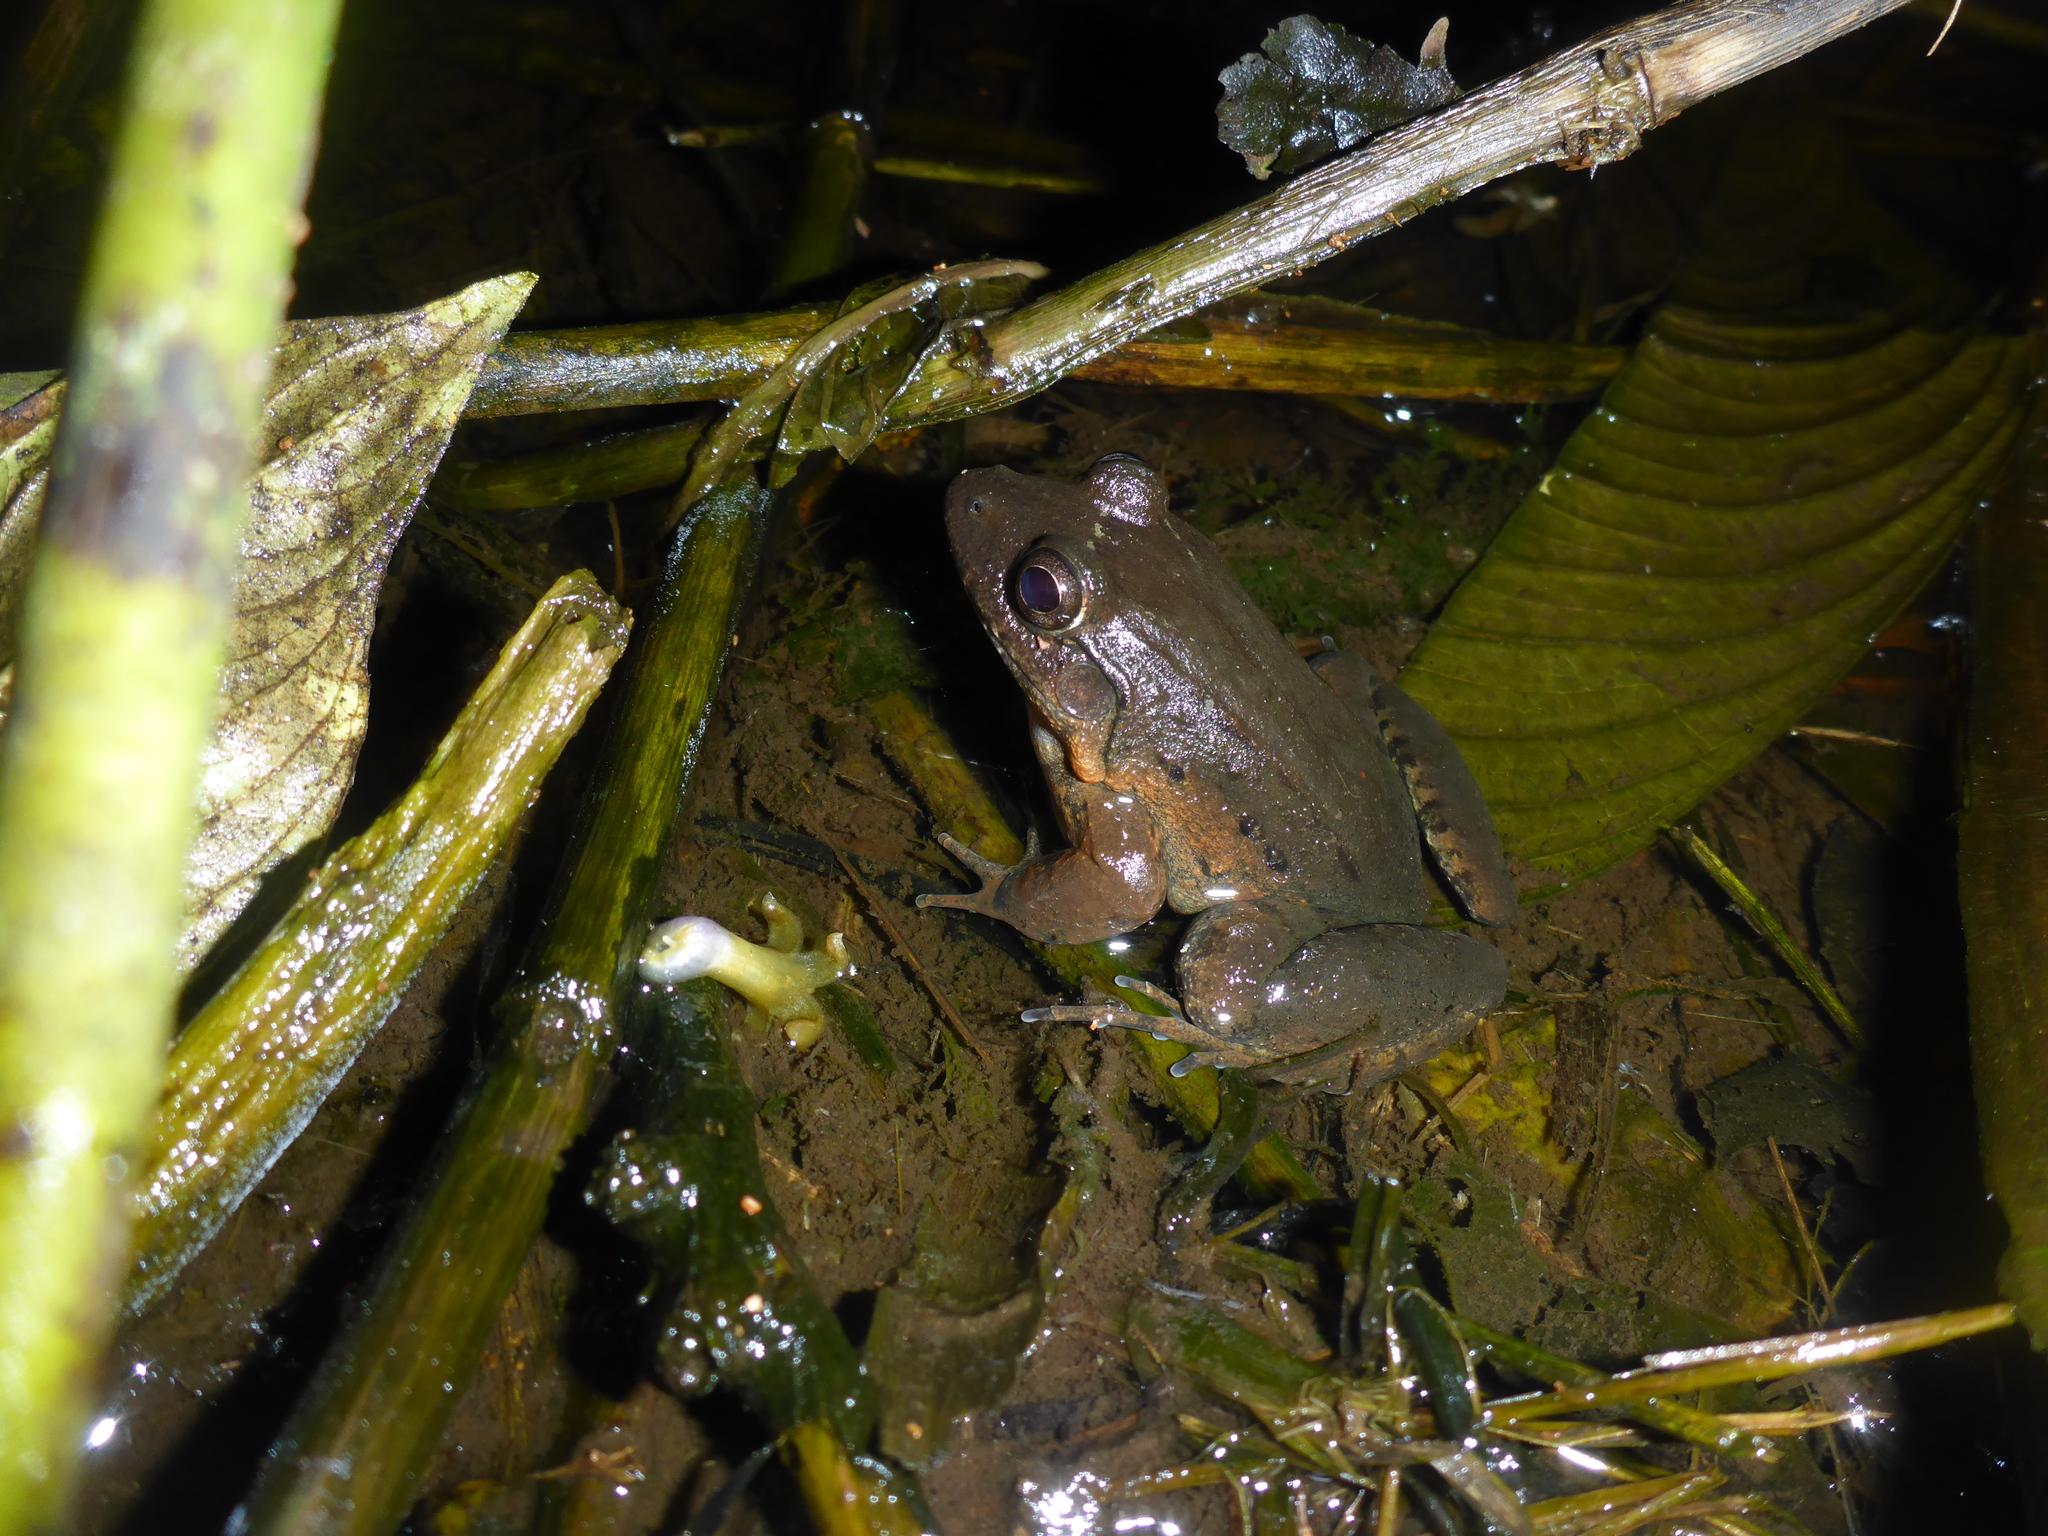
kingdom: Animalia
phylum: Chordata
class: Amphibia
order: Anura
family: Leptodactylidae
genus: Leptodactylus
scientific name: Leptodactylus wagneri
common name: Wagner's white-lipped frog
